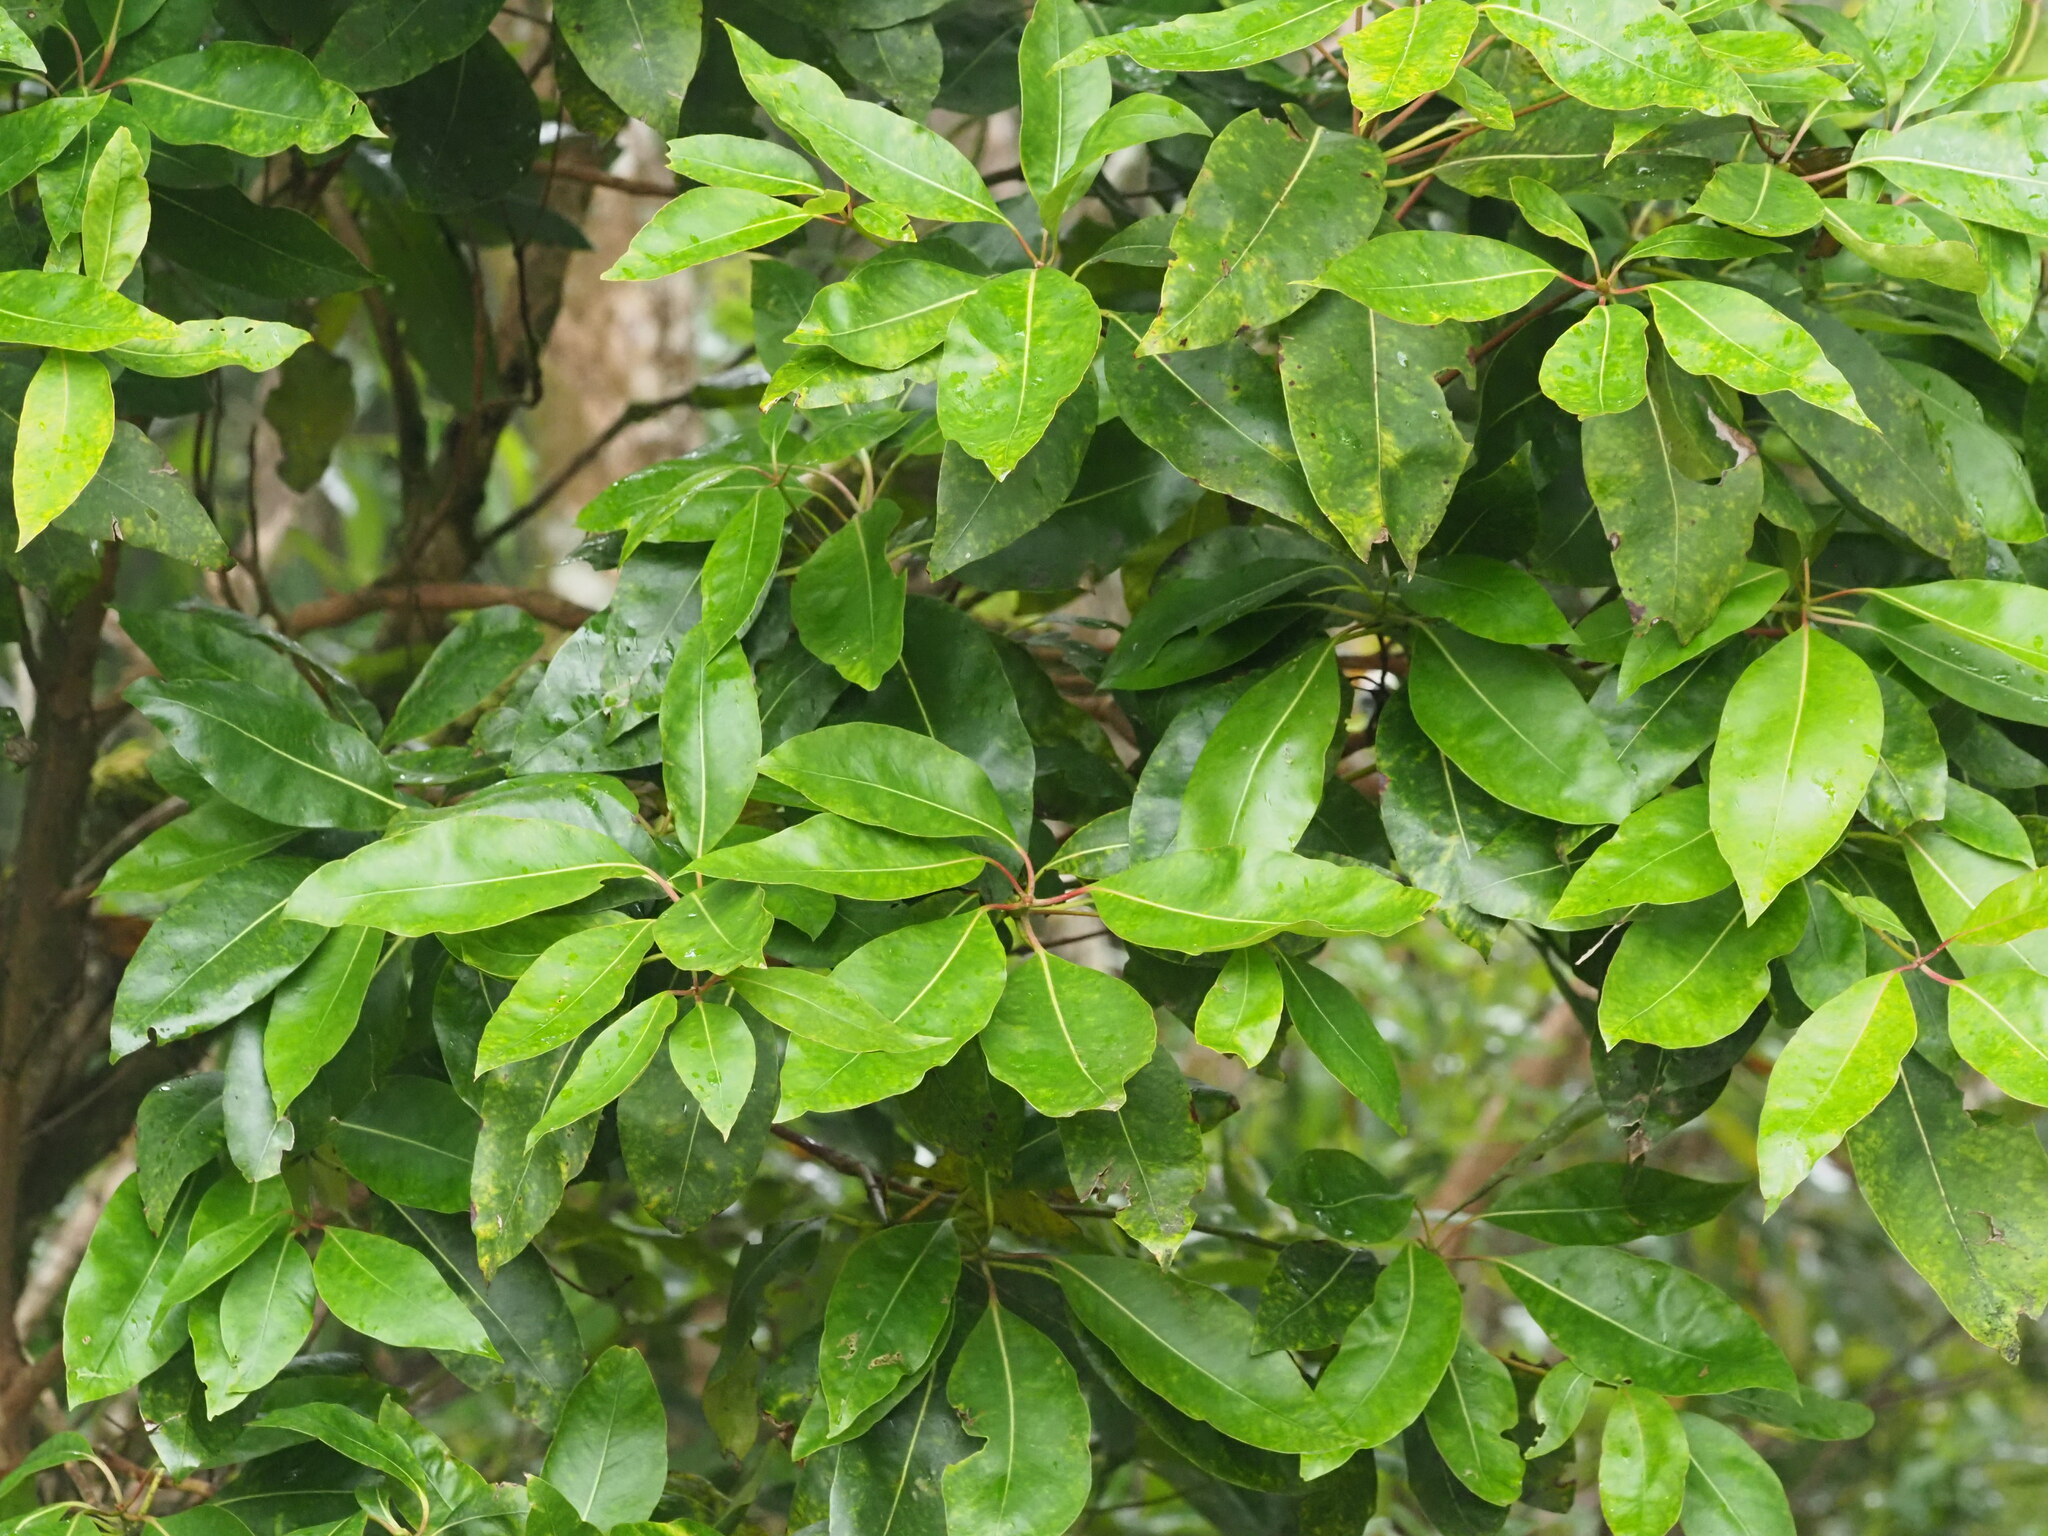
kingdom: Plantae
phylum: Tracheophyta
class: Magnoliopsida
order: Myrtales
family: Myrtaceae
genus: Lophostemon
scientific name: Lophostemon confertus
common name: Brisbane box
